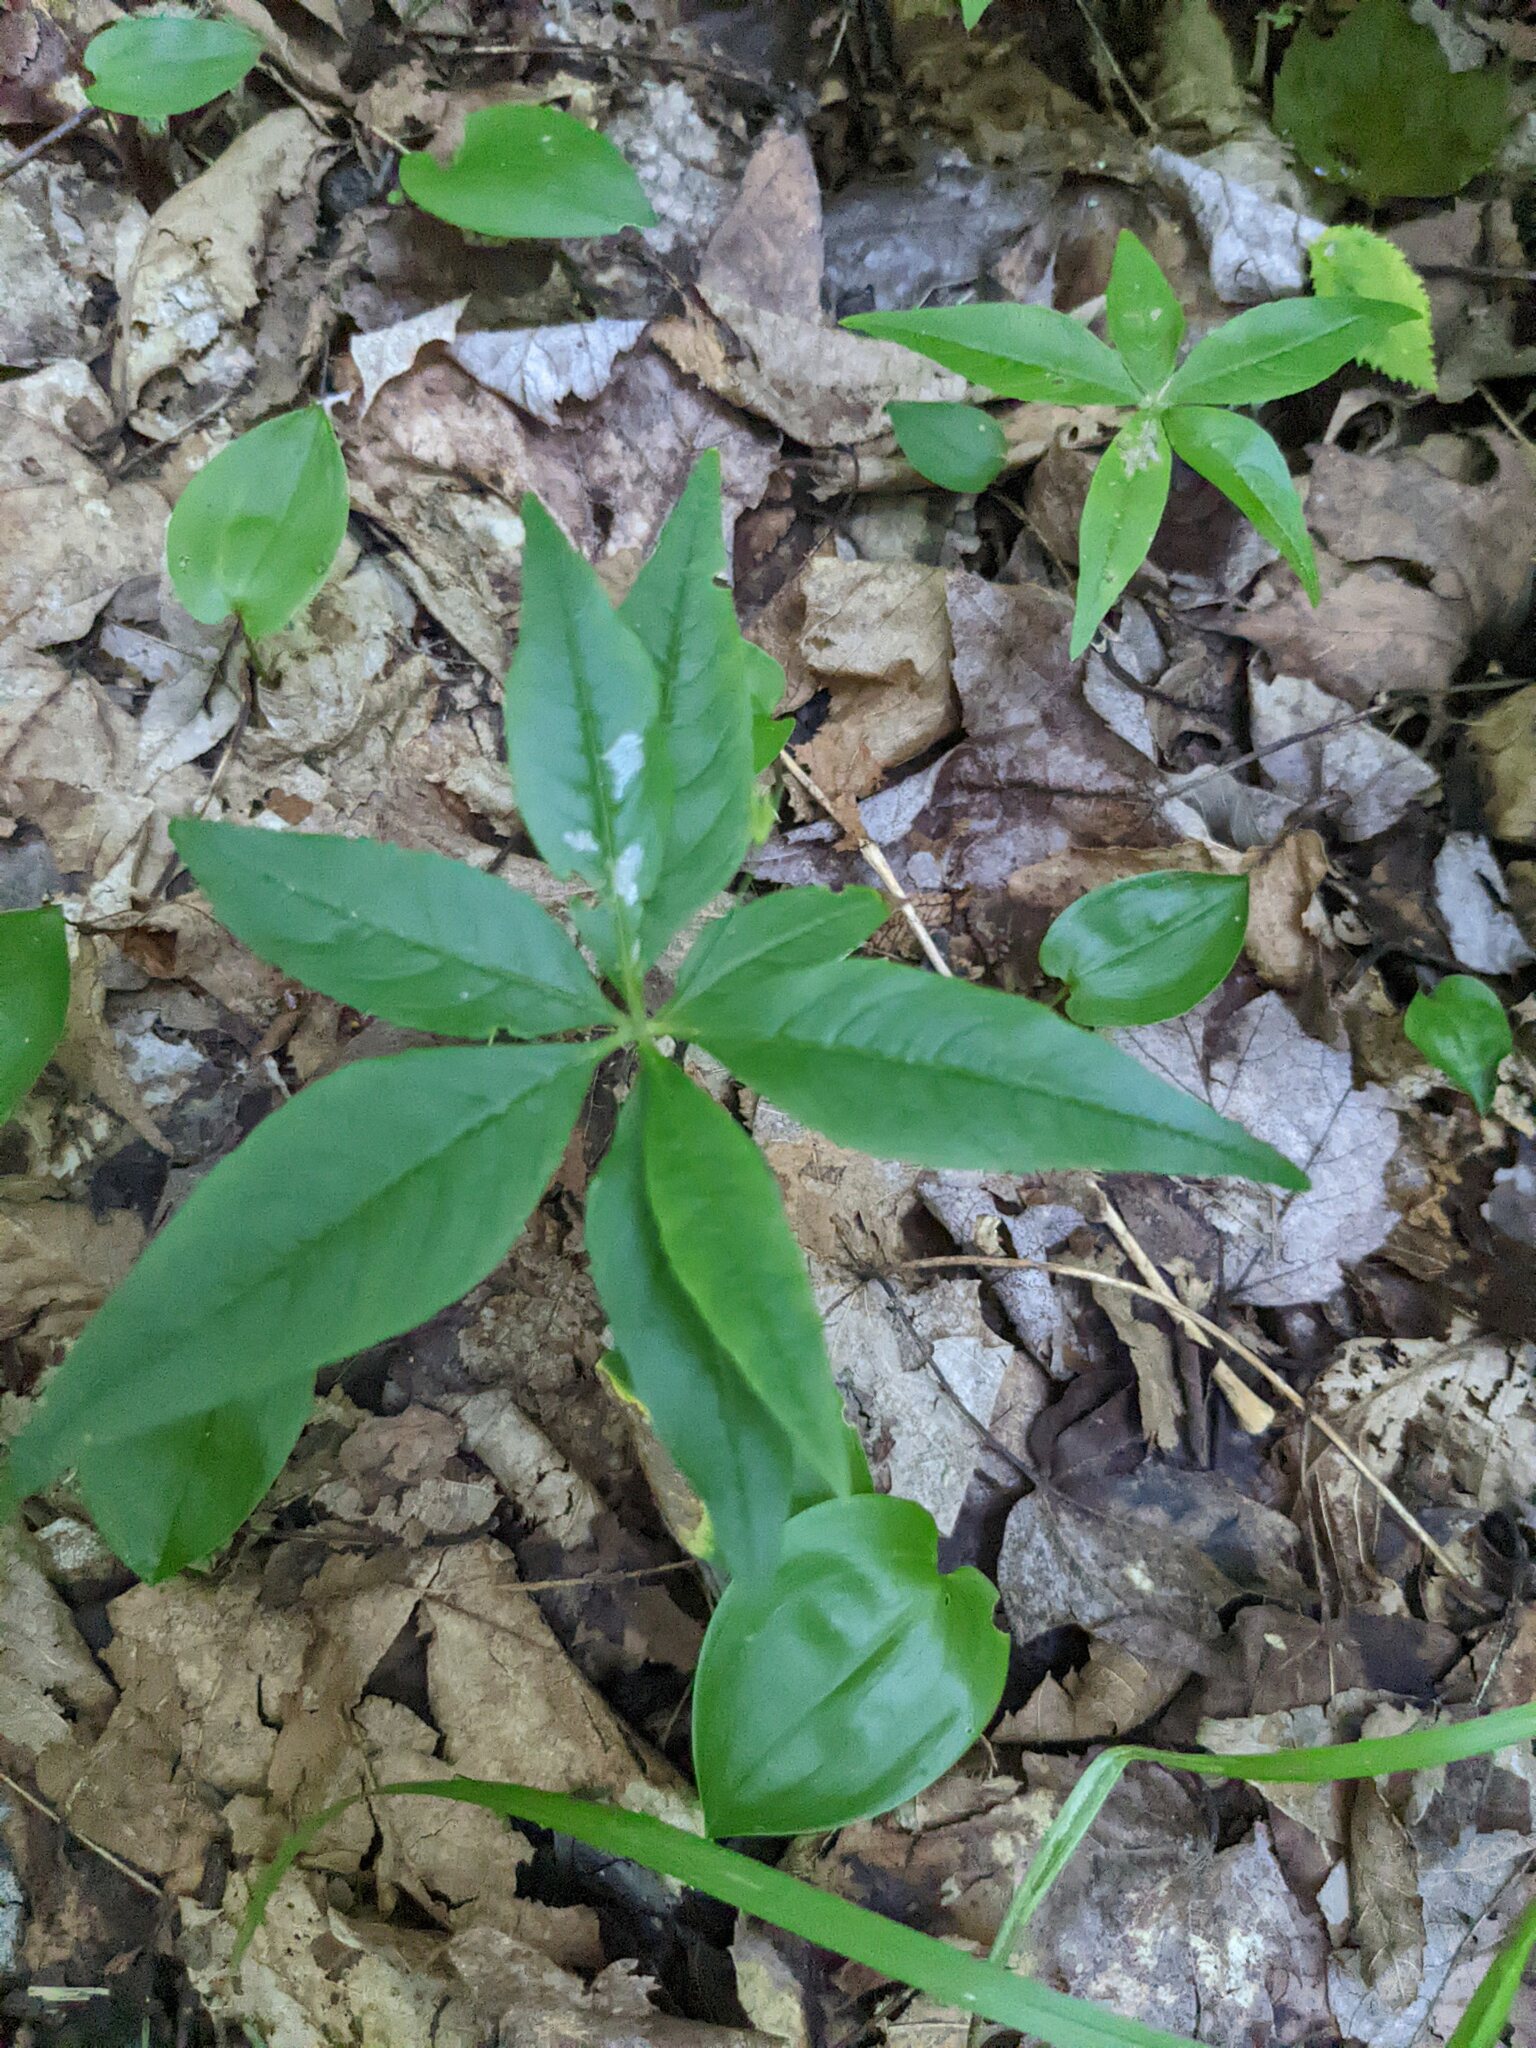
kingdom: Plantae
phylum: Tracheophyta
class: Magnoliopsida
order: Ericales
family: Primulaceae
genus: Lysimachia
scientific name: Lysimachia borealis
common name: American starflower
